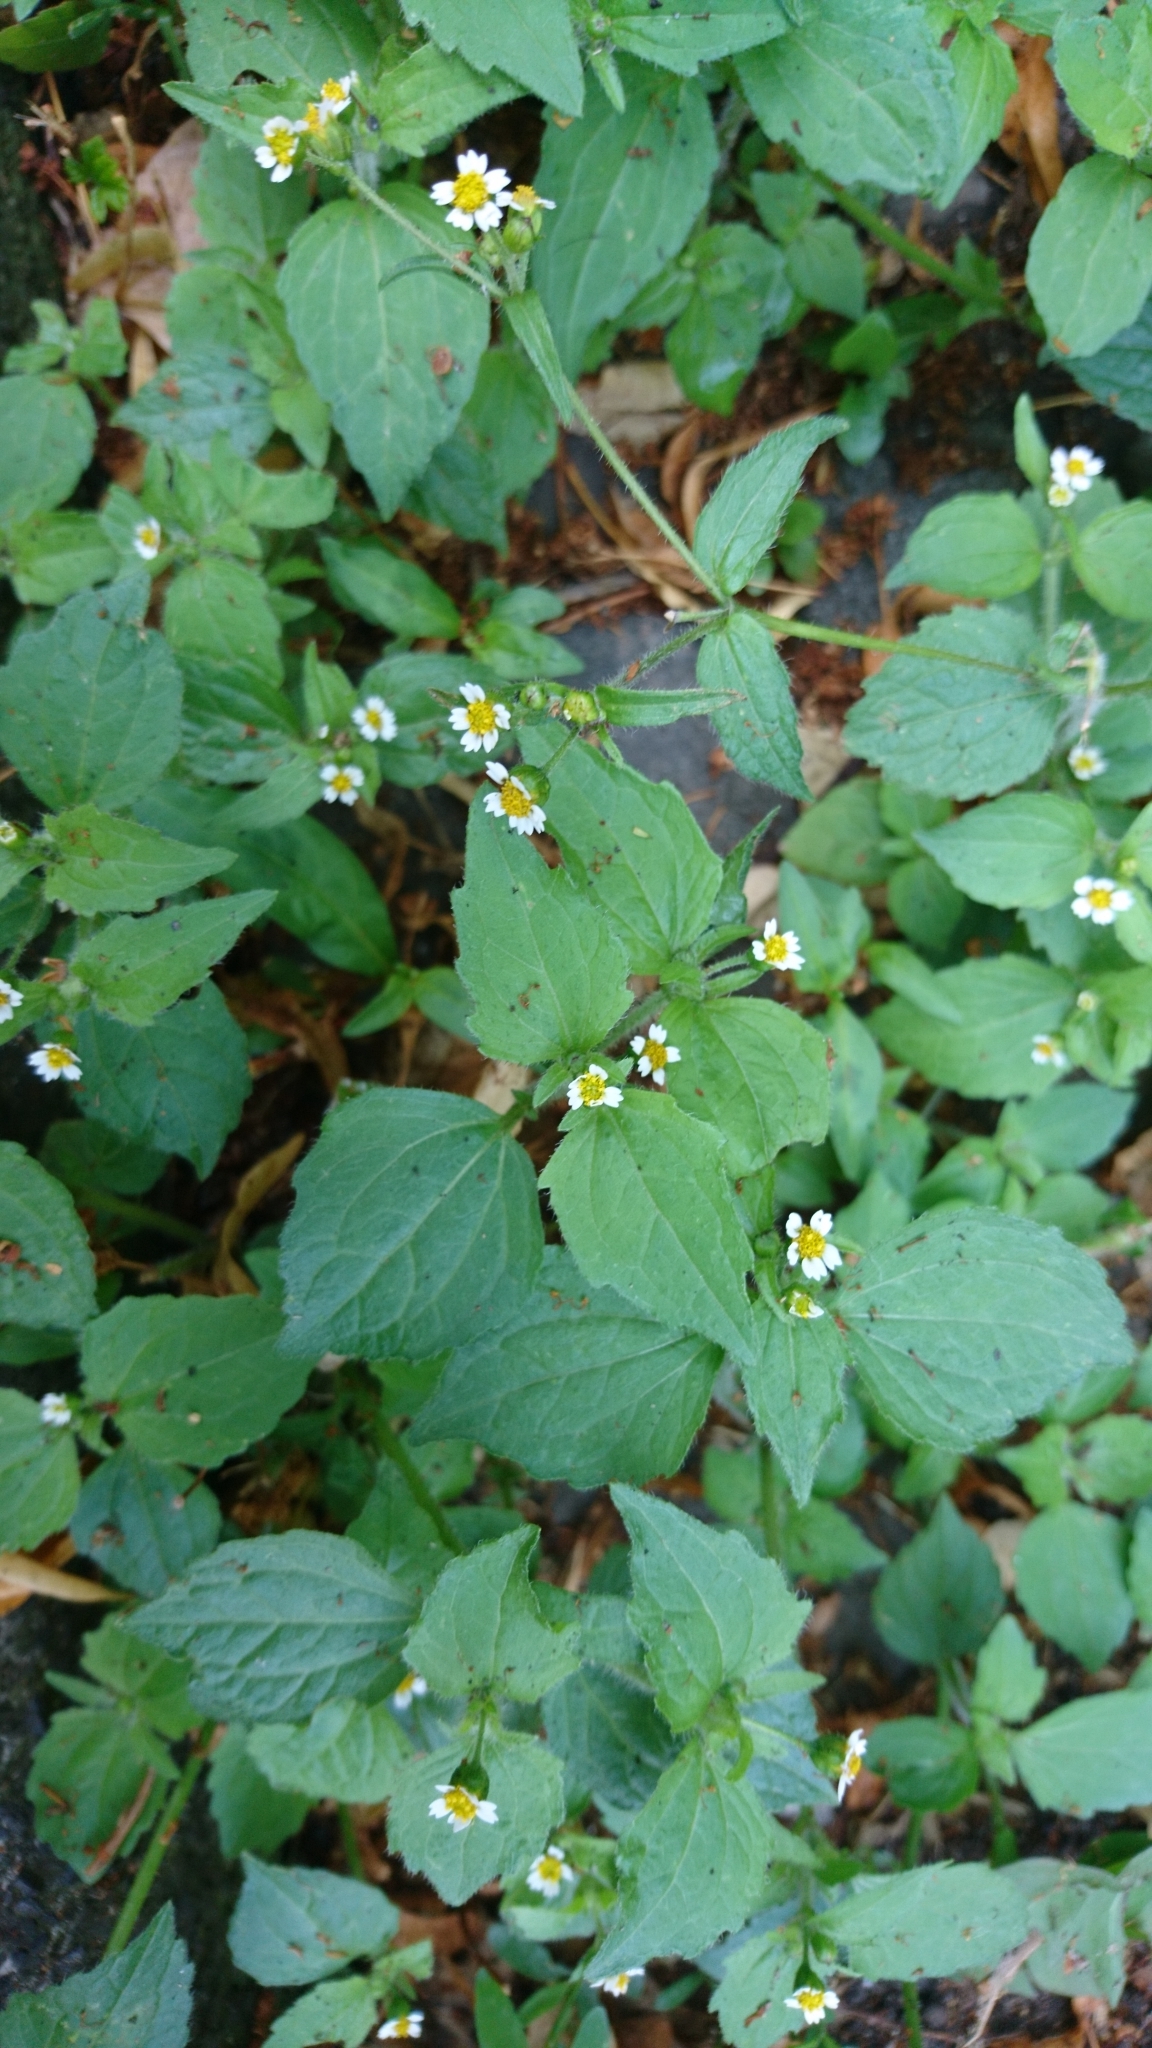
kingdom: Plantae
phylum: Tracheophyta
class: Magnoliopsida
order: Asterales
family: Asteraceae
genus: Galinsoga
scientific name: Galinsoga quadriradiata
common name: Shaggy soldier
